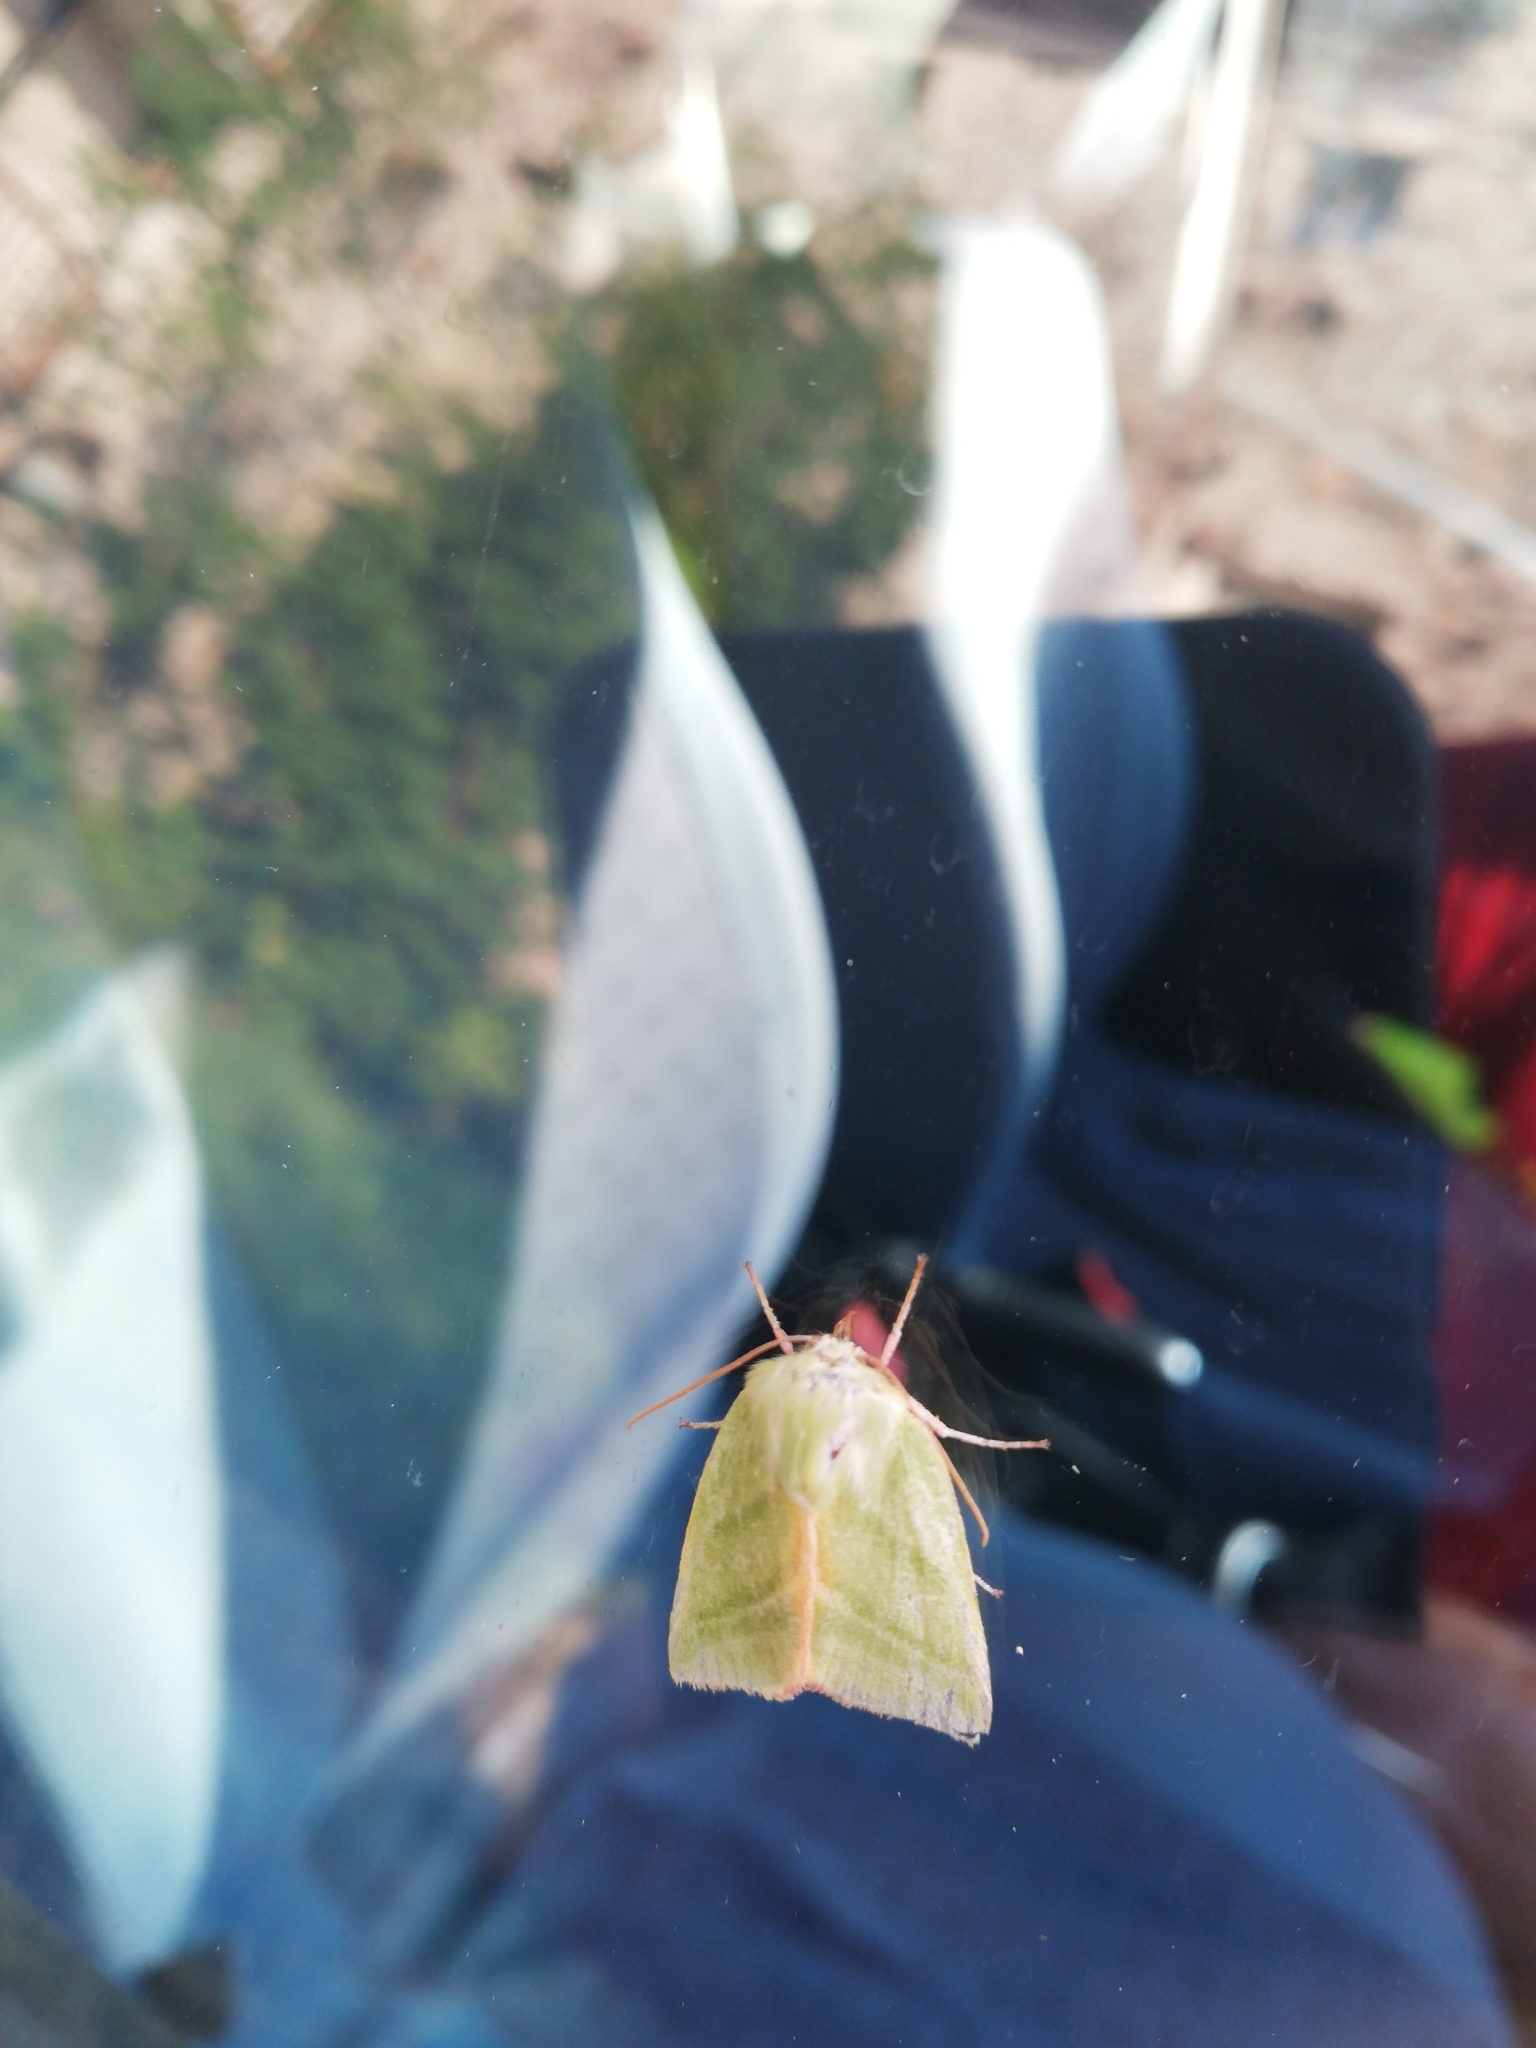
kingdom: Animalia
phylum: Arthropoda
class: Insecta
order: Lepidoptera
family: Nolidae
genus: Pseudoips
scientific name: Pseudoips prasinana
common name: Green silver-lines
